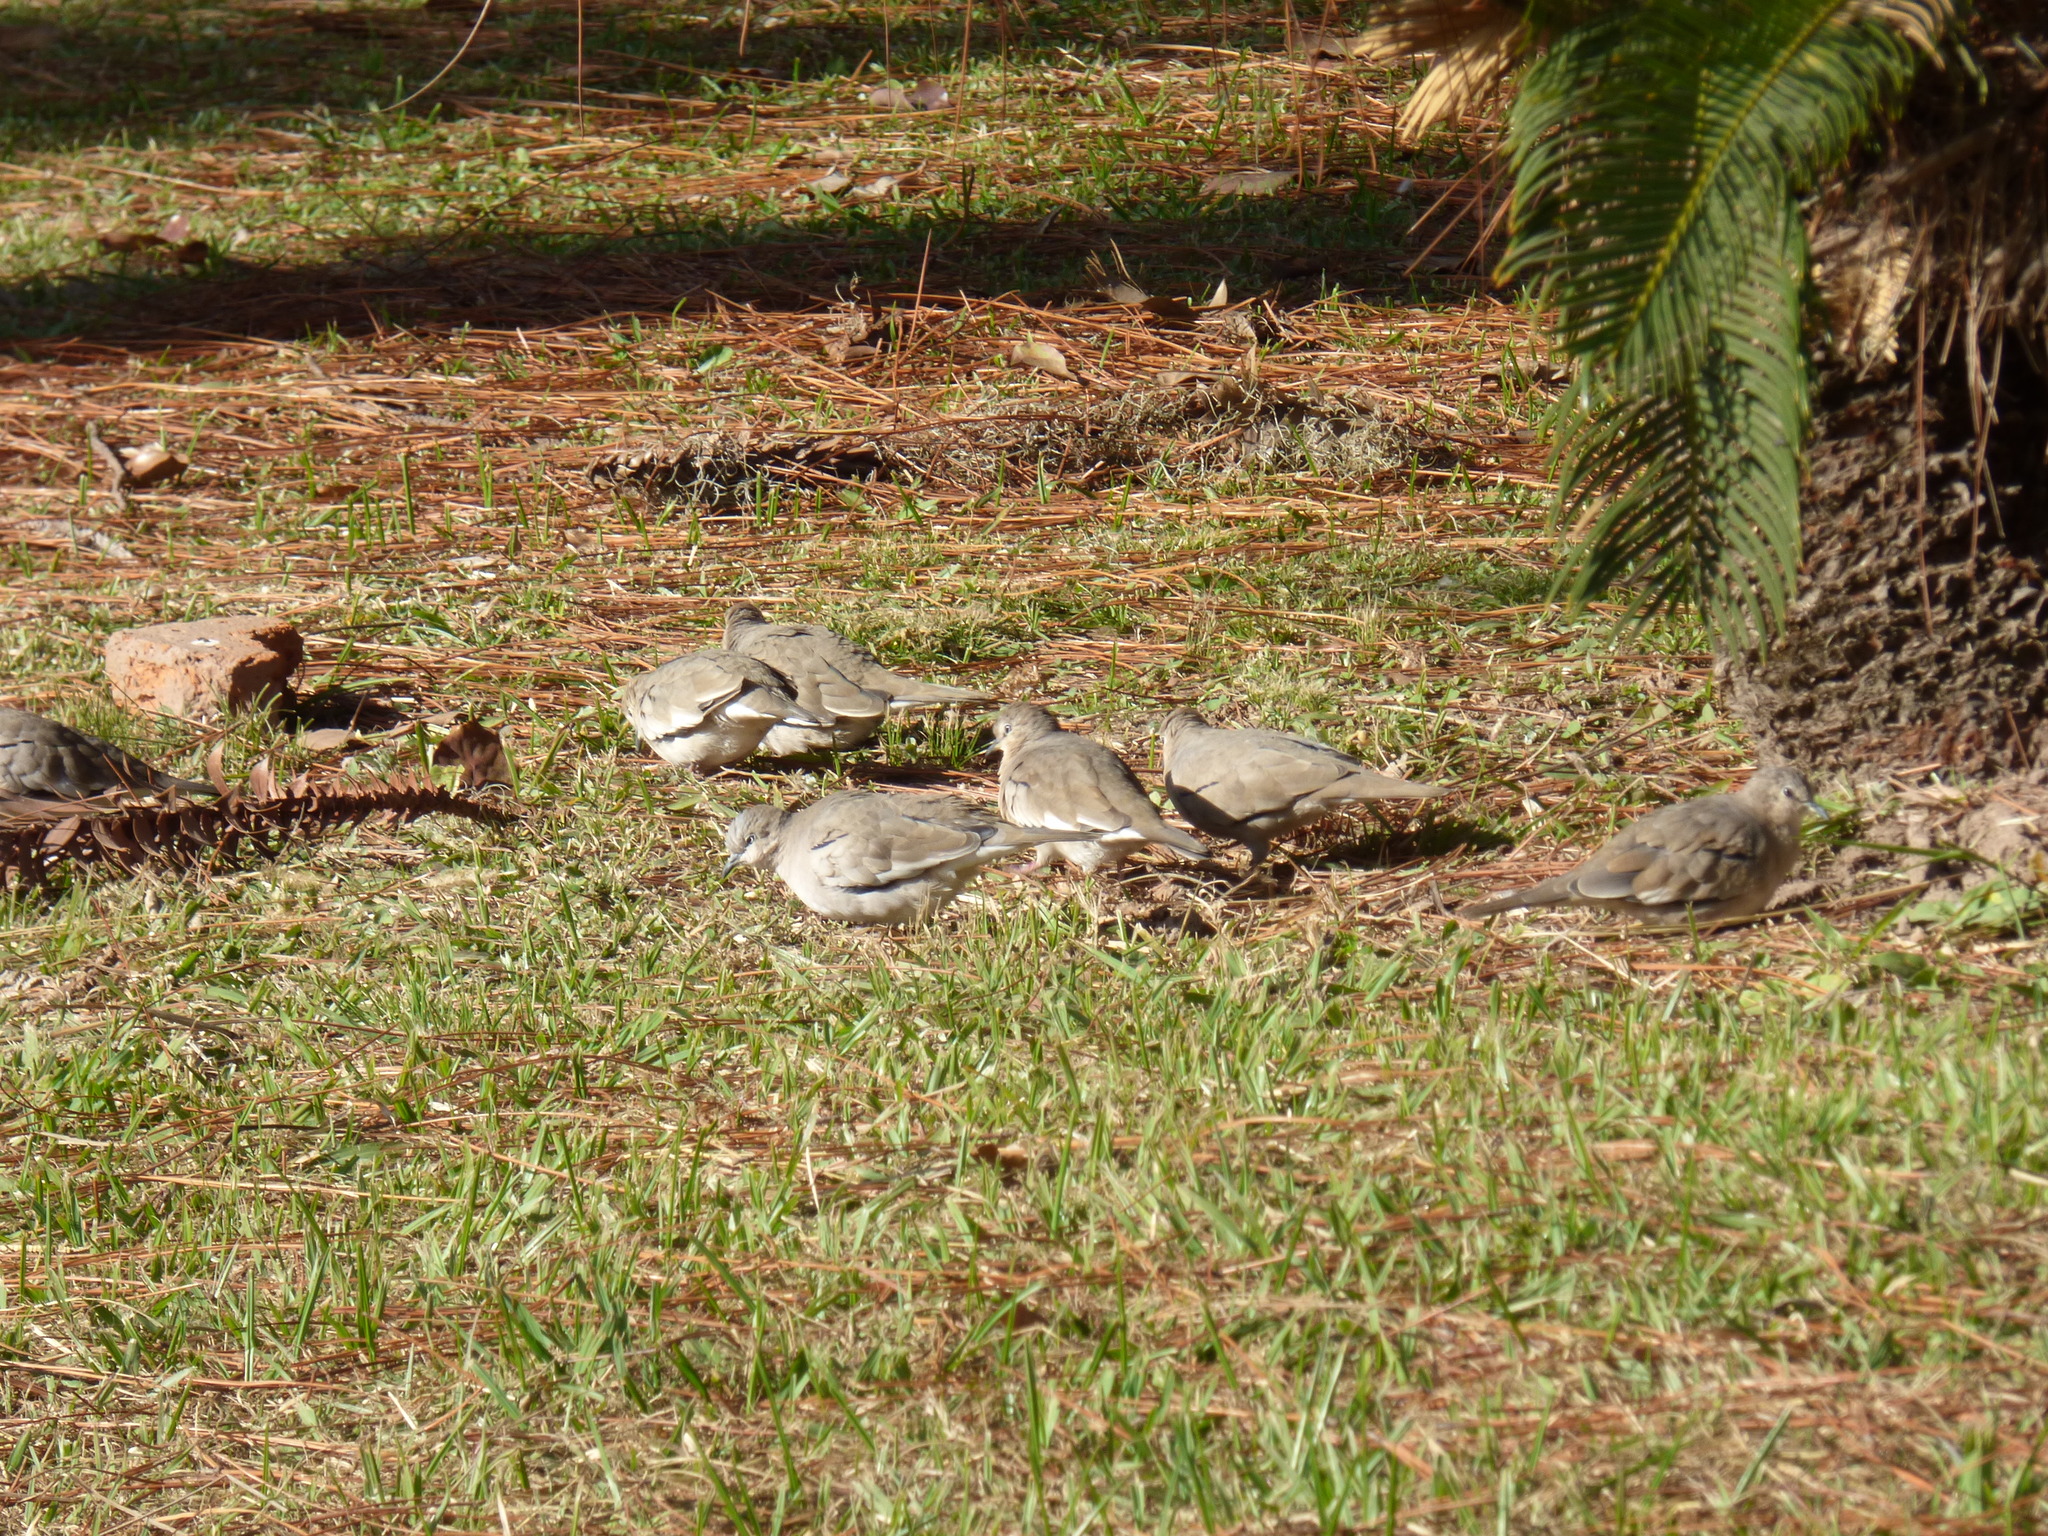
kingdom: Animalia
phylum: Chordata
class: Aves
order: Columbiformes
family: Columbidae
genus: Columbina
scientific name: Columbina picui
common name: Picui ground dove
